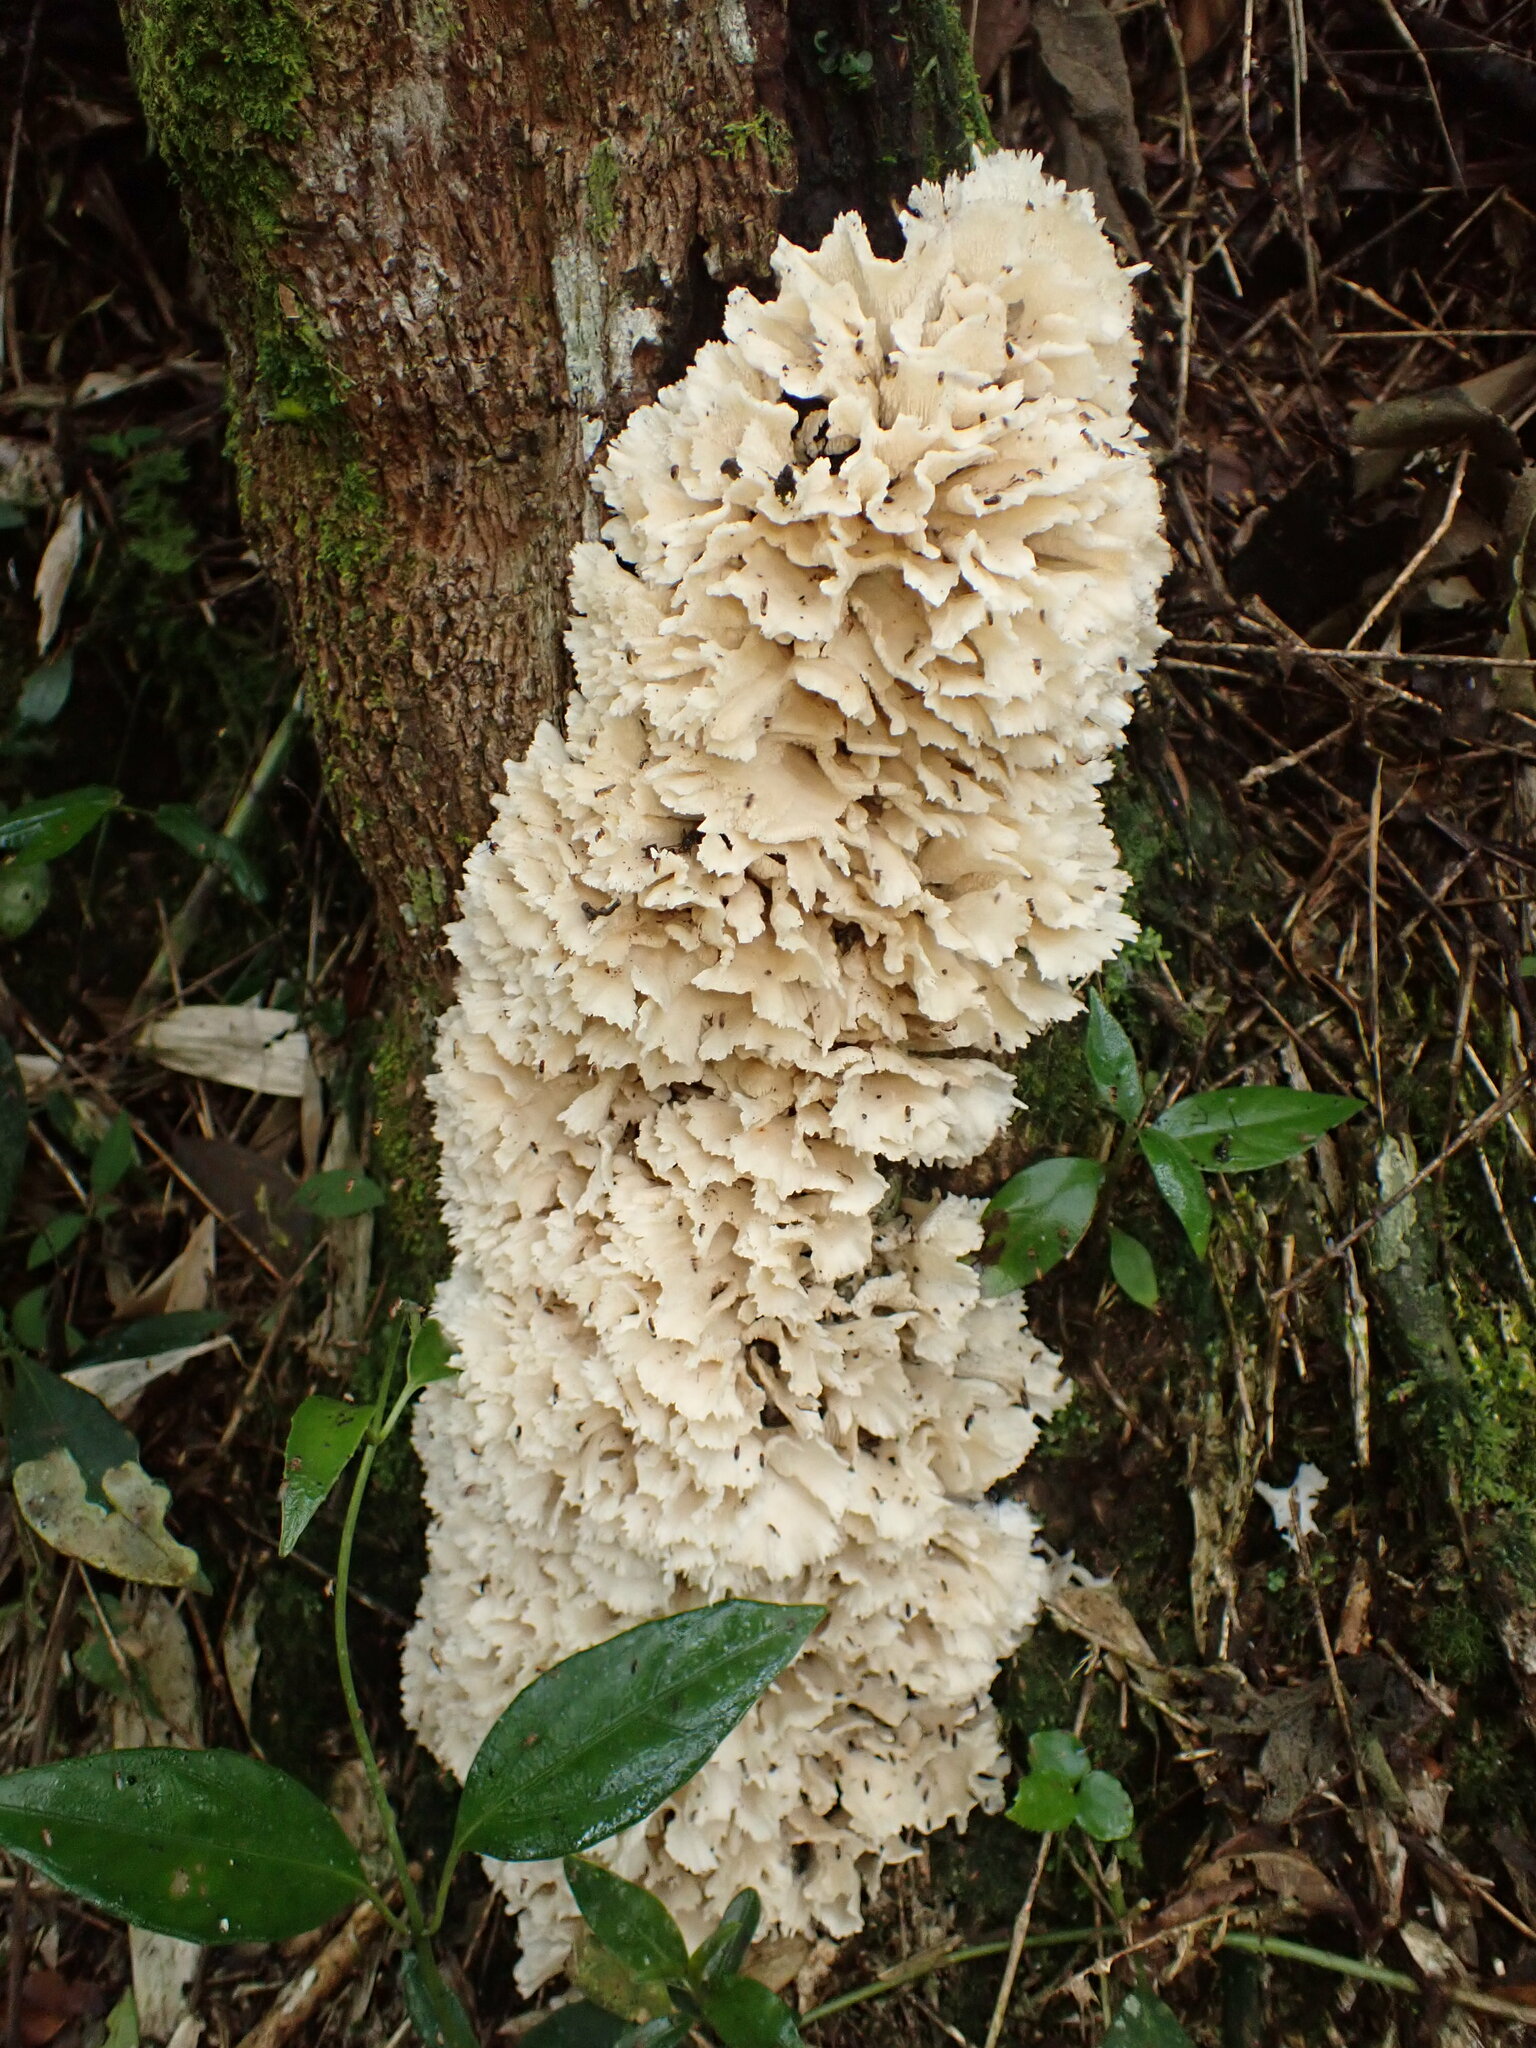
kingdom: Fungi
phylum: Basidiomycota
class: Agaricomycetes
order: Polyporales
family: Irpicaceae
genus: Irpex
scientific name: Irpex rosettiformis
